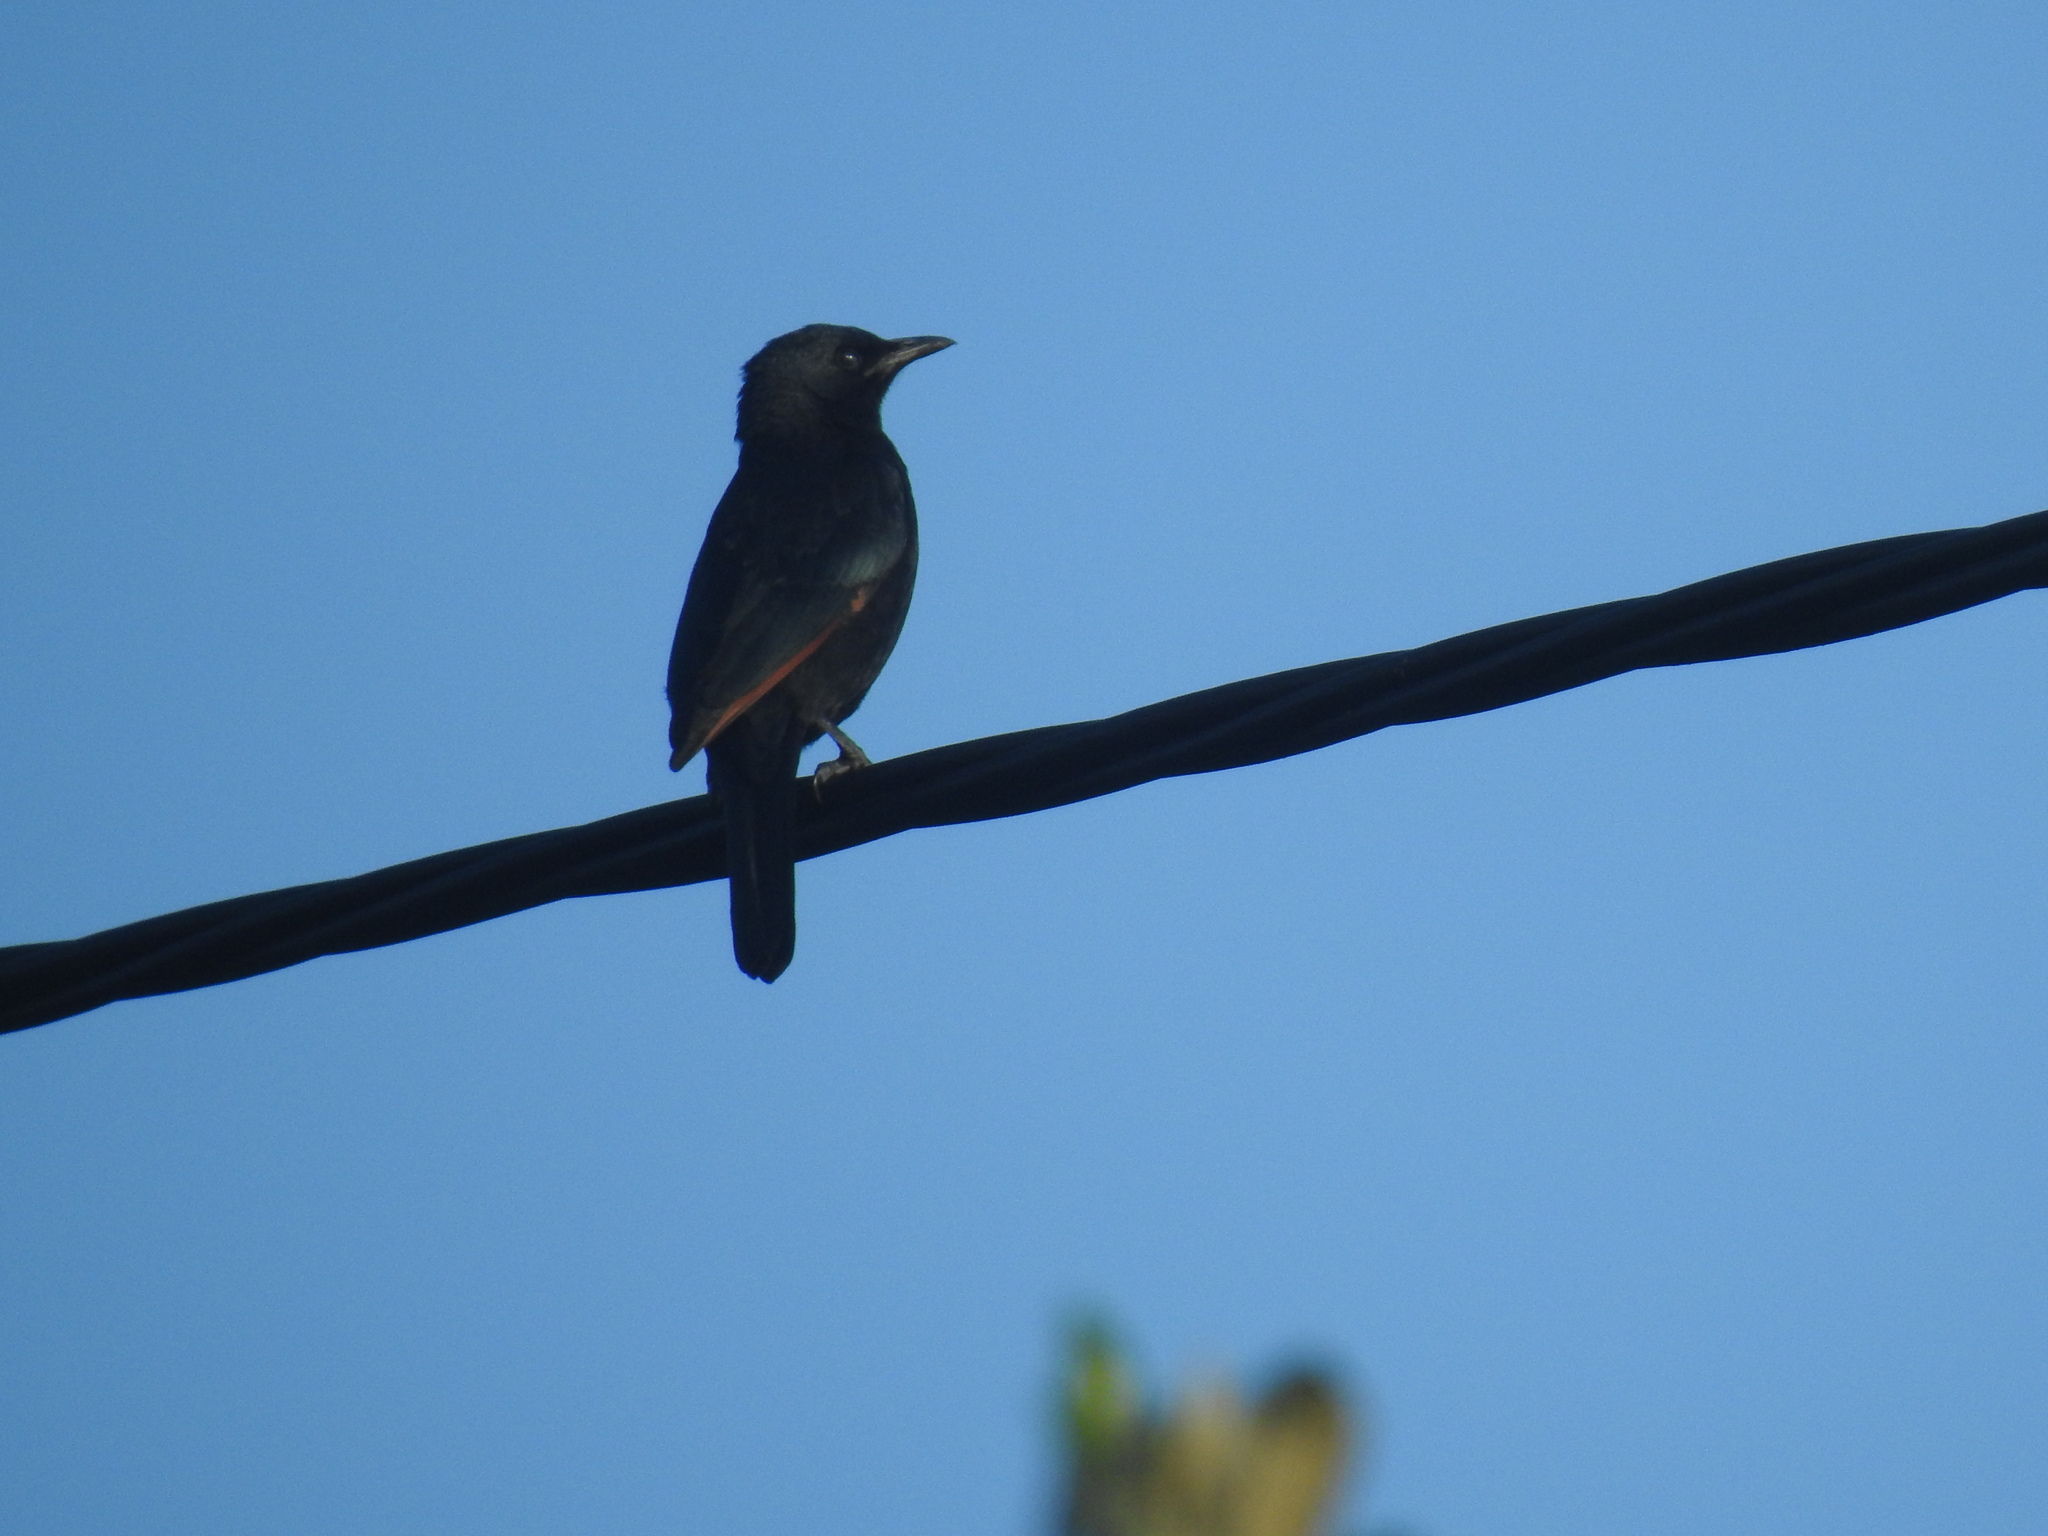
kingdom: Animalia
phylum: Chordata
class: Aves
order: Passeriformes
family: Sturnidae
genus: Onychognathus
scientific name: Onychognathus morio
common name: Red-winged starling
